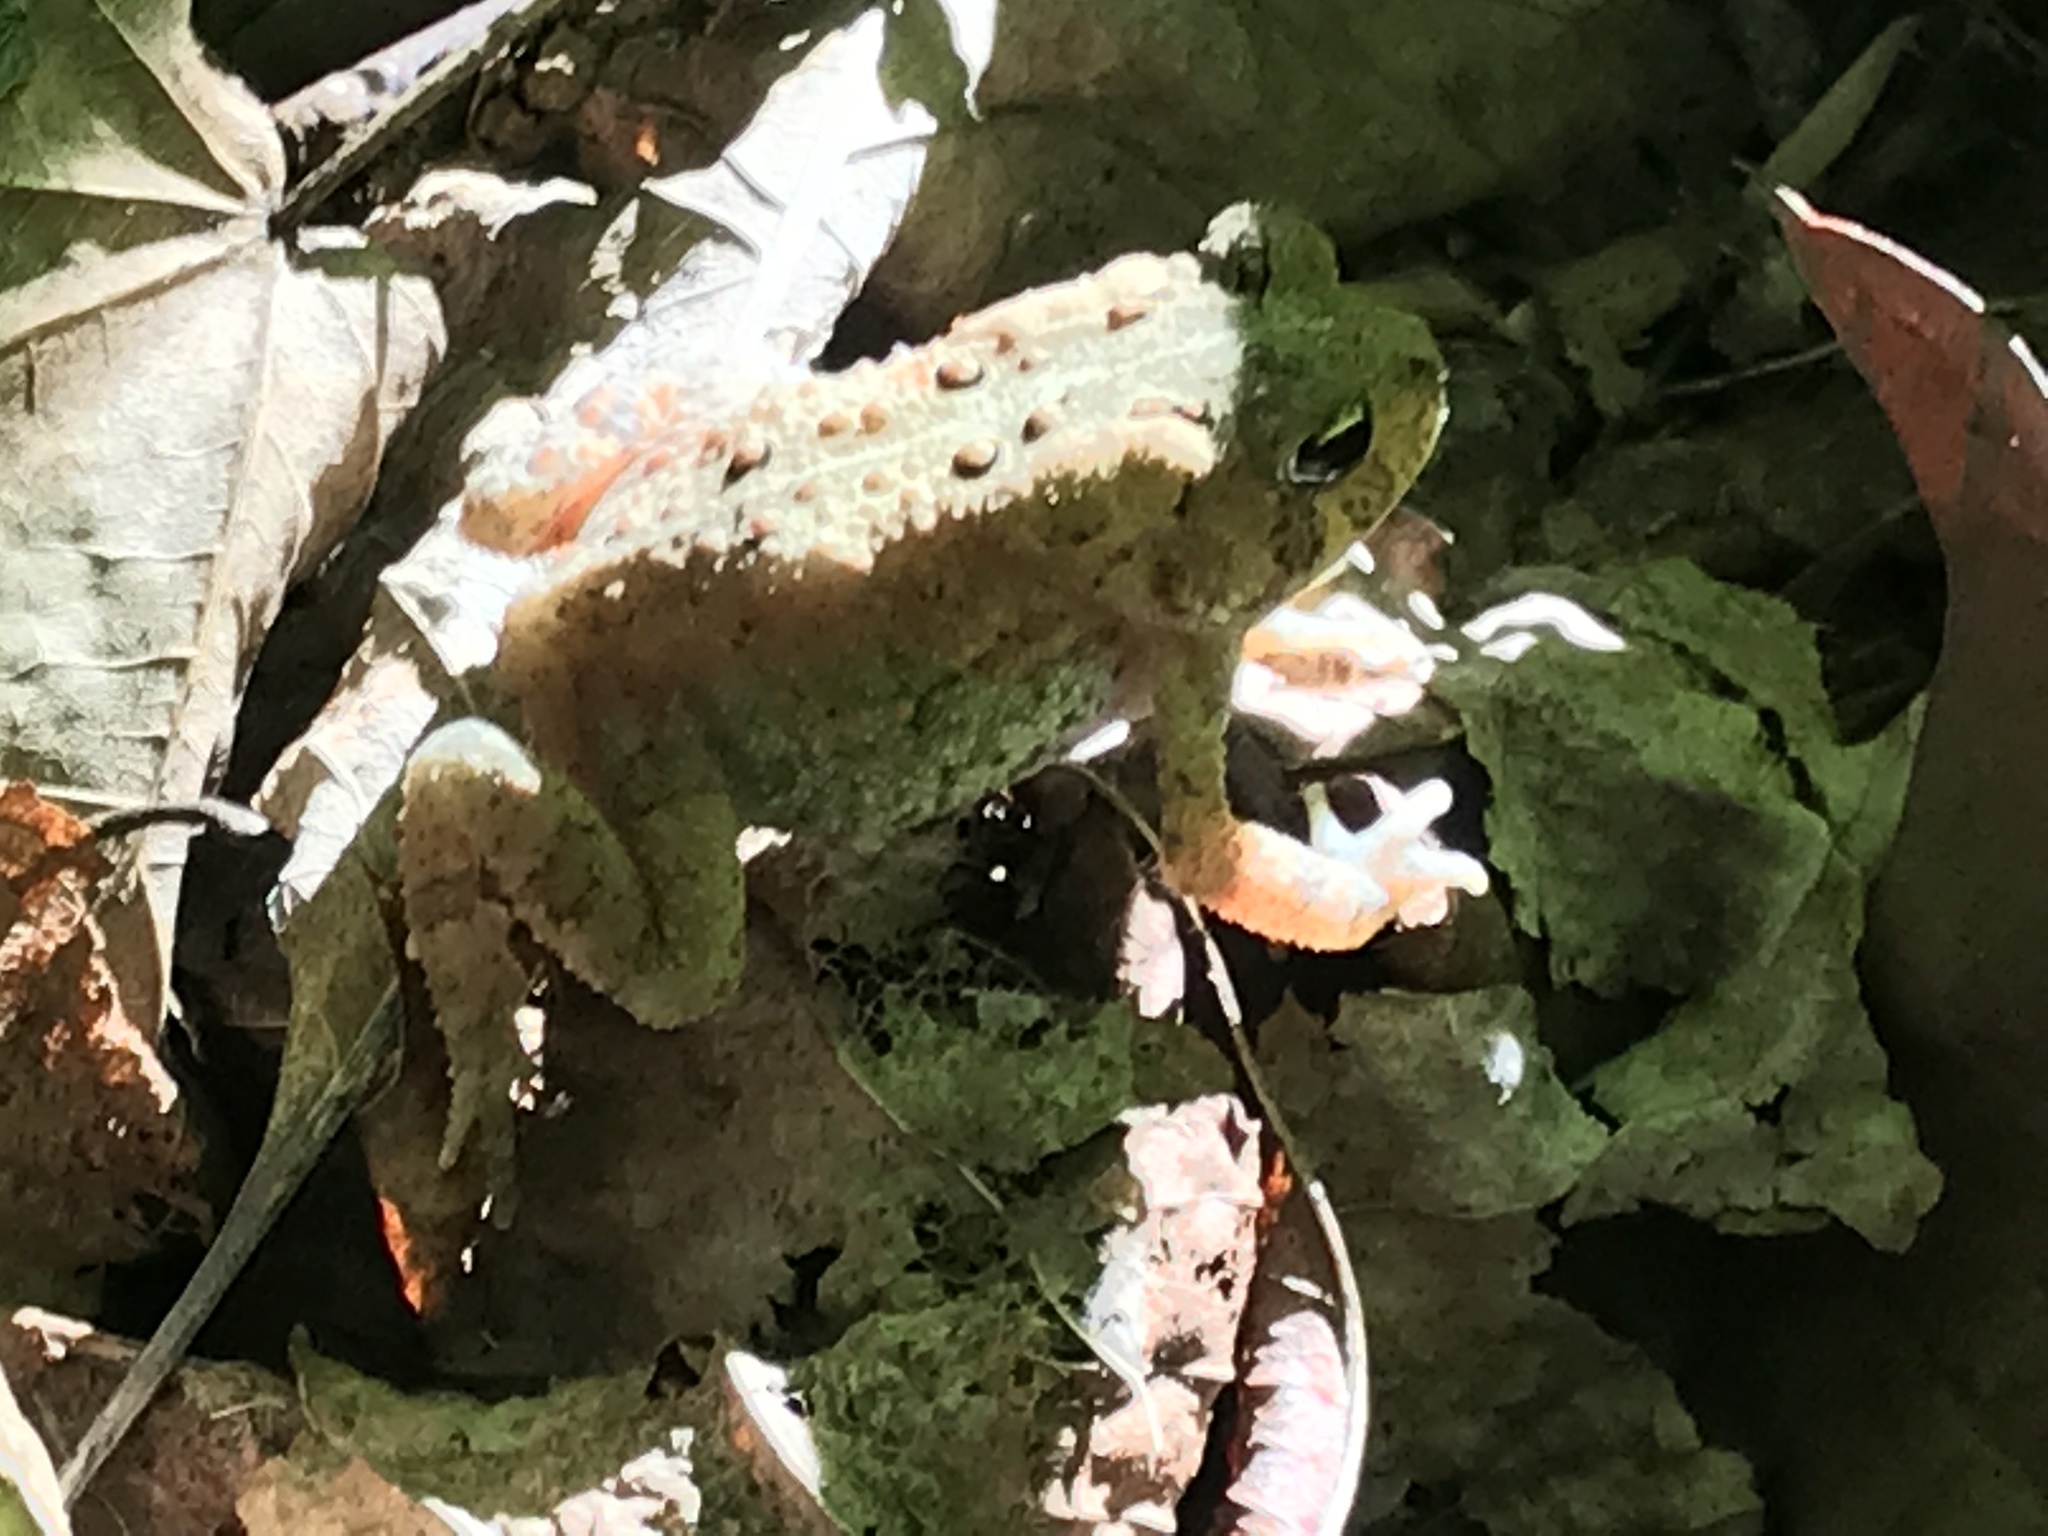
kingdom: Animalia
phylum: Chordata
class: Amphibia
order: Anura
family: Bufonidae
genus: Anaxyrus
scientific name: Anaxyrus americanus
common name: American toad
